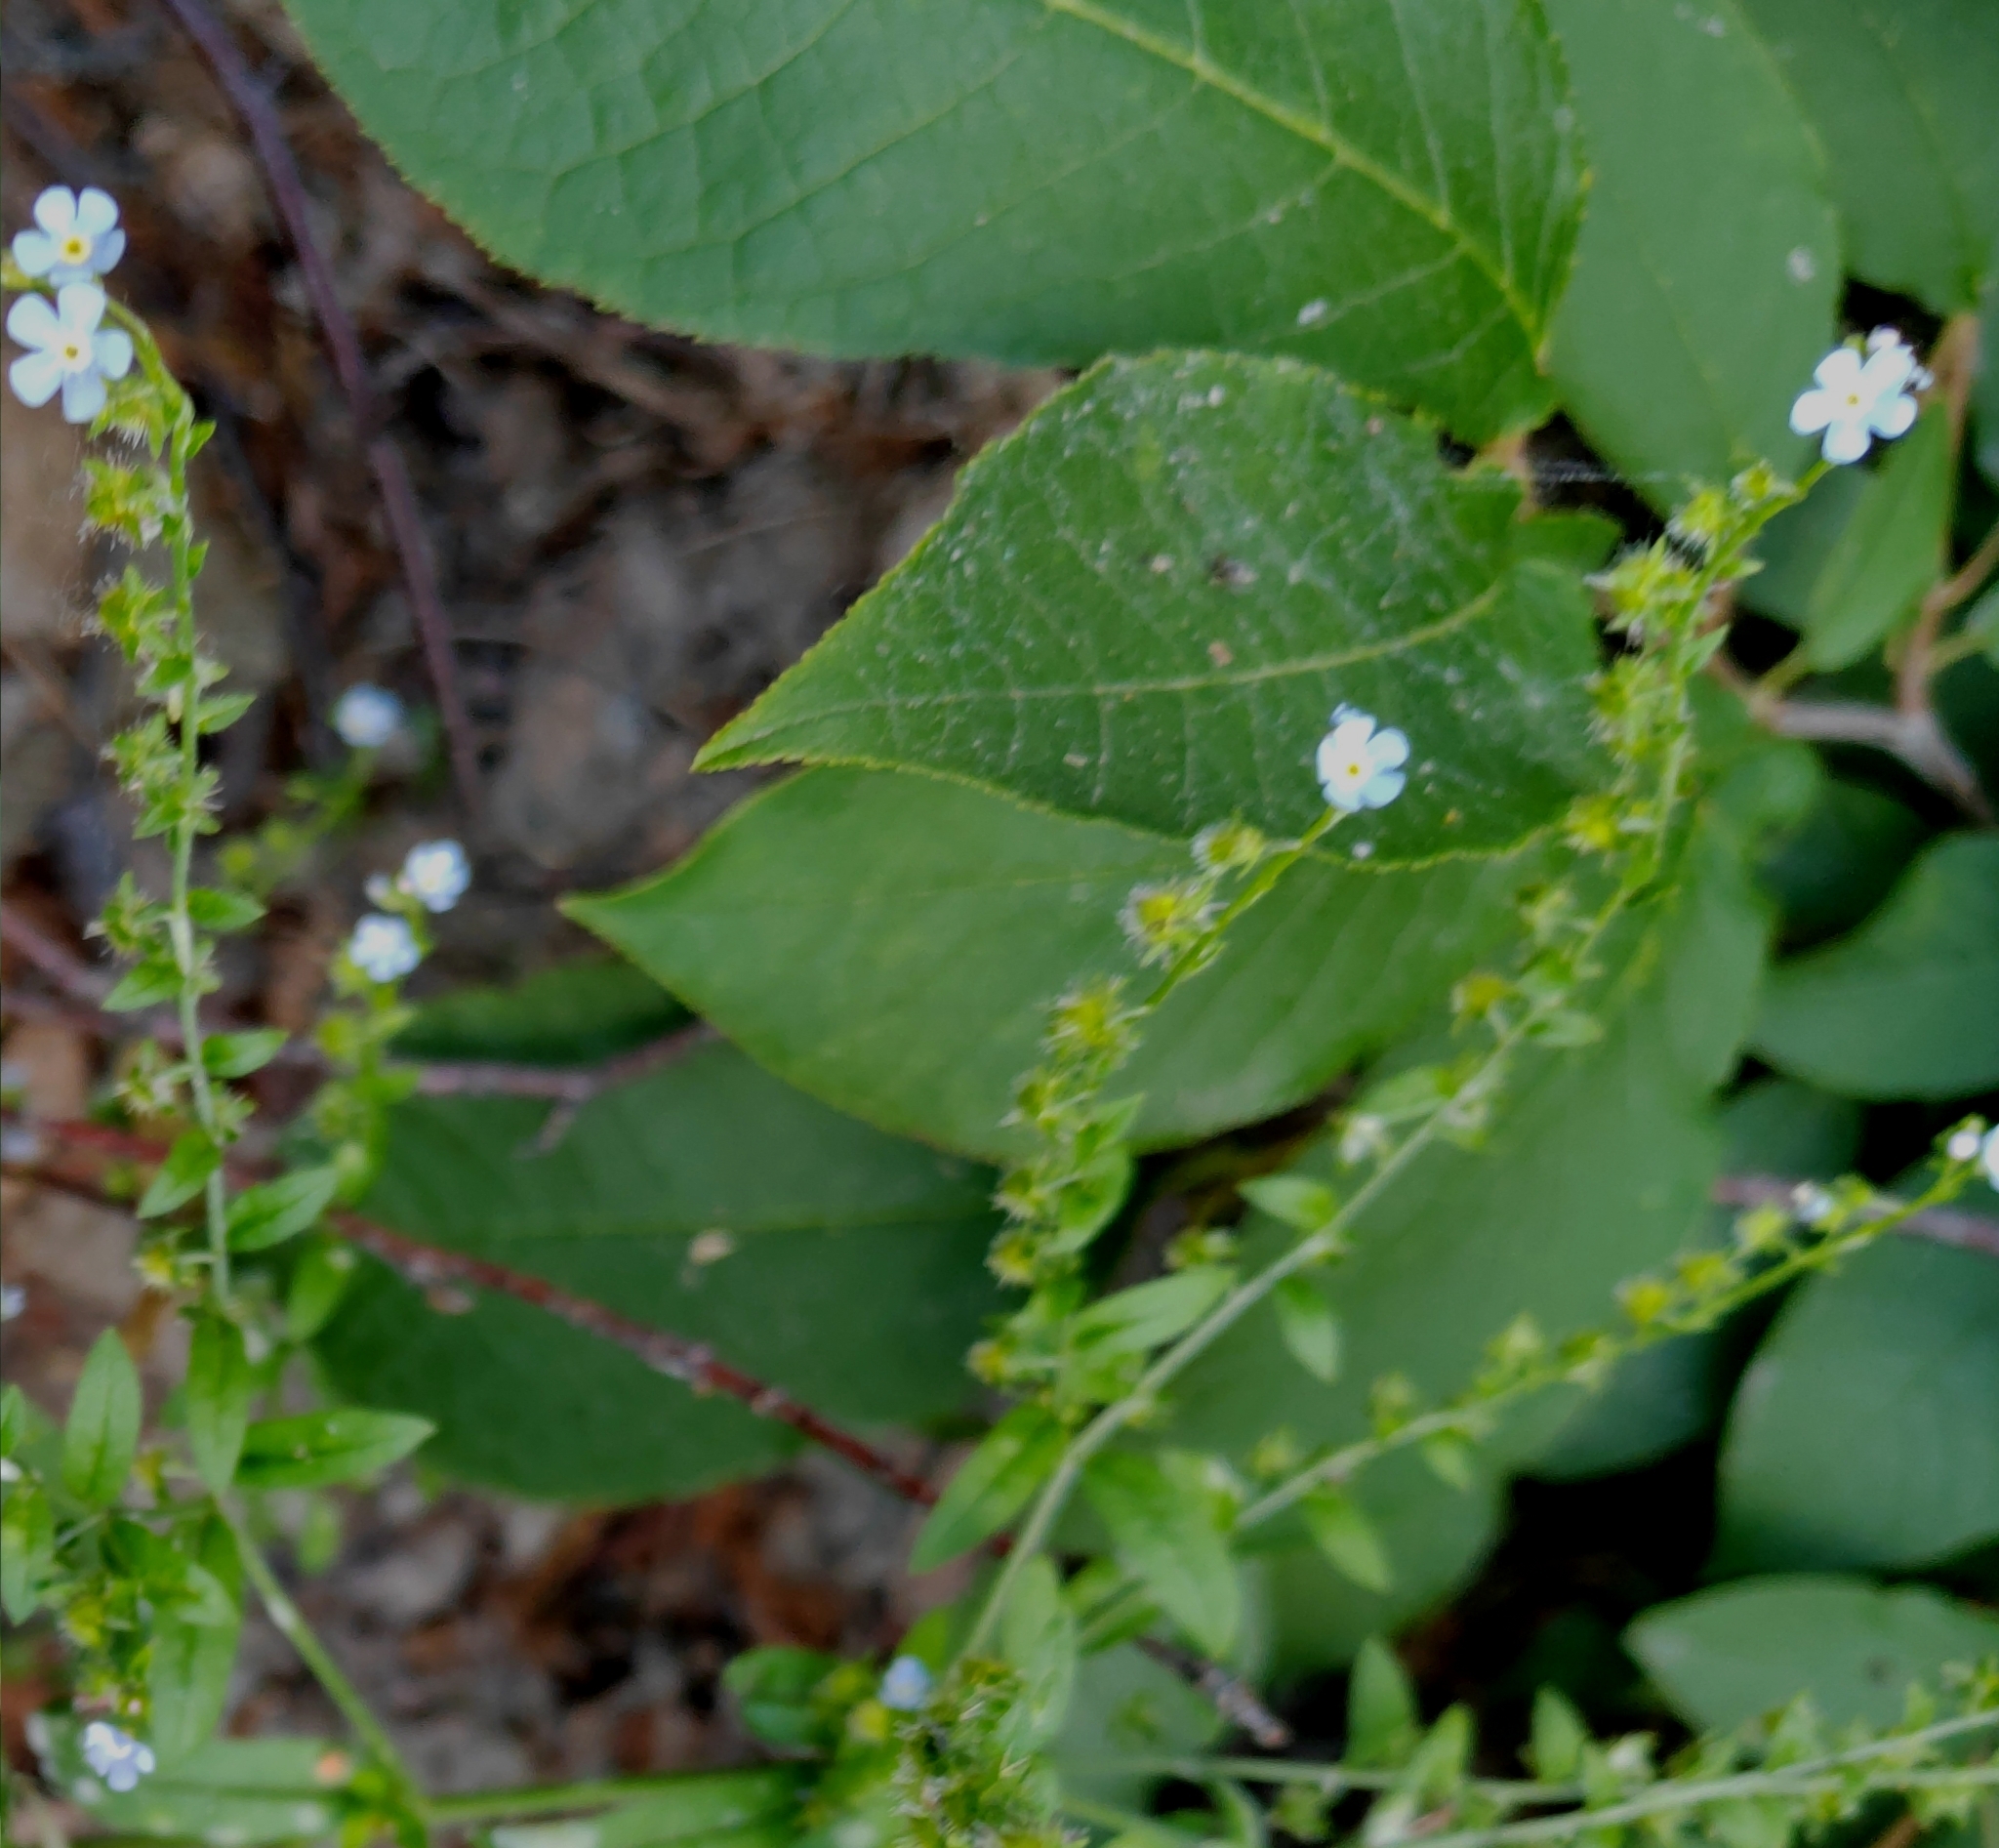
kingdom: Plantae
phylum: Tracheophyta
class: Magnoliopsida
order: Boraginales
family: Boraginaceae
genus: Hackelia
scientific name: Hackelia deflexa
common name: Nodding stickseed
